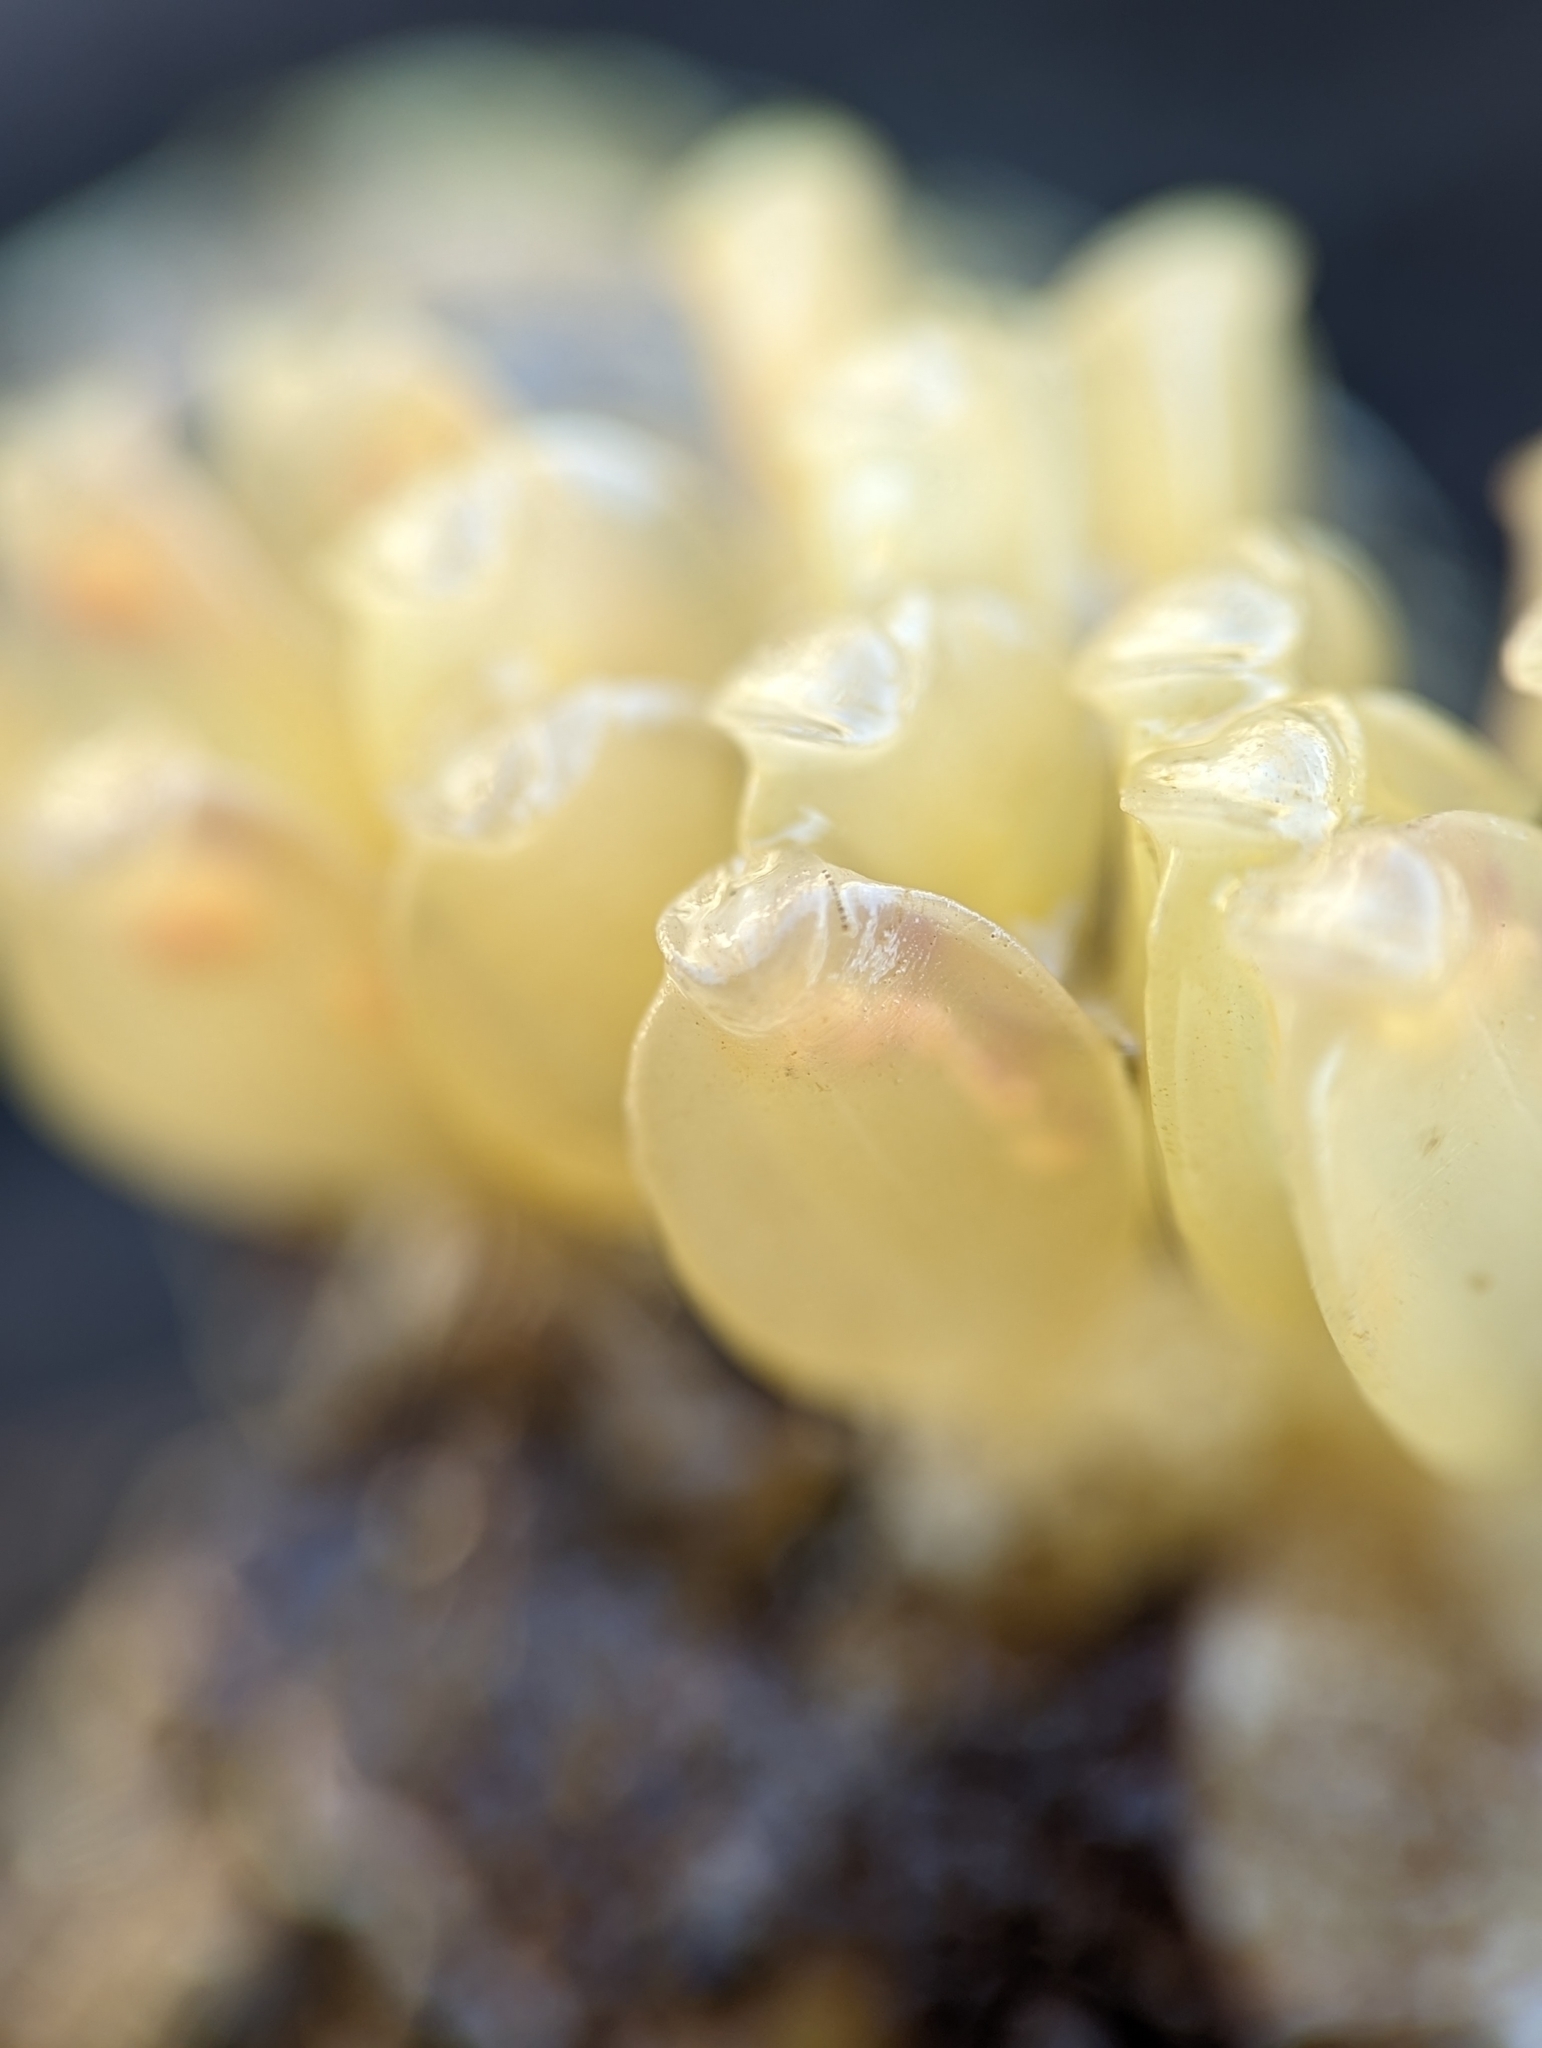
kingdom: Animalia
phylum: Mollusca
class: Gastropoda
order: Neogastropoda
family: Muricidae
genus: Urosalpinx
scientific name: Urosalpinx cinerea
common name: American sting winkle
